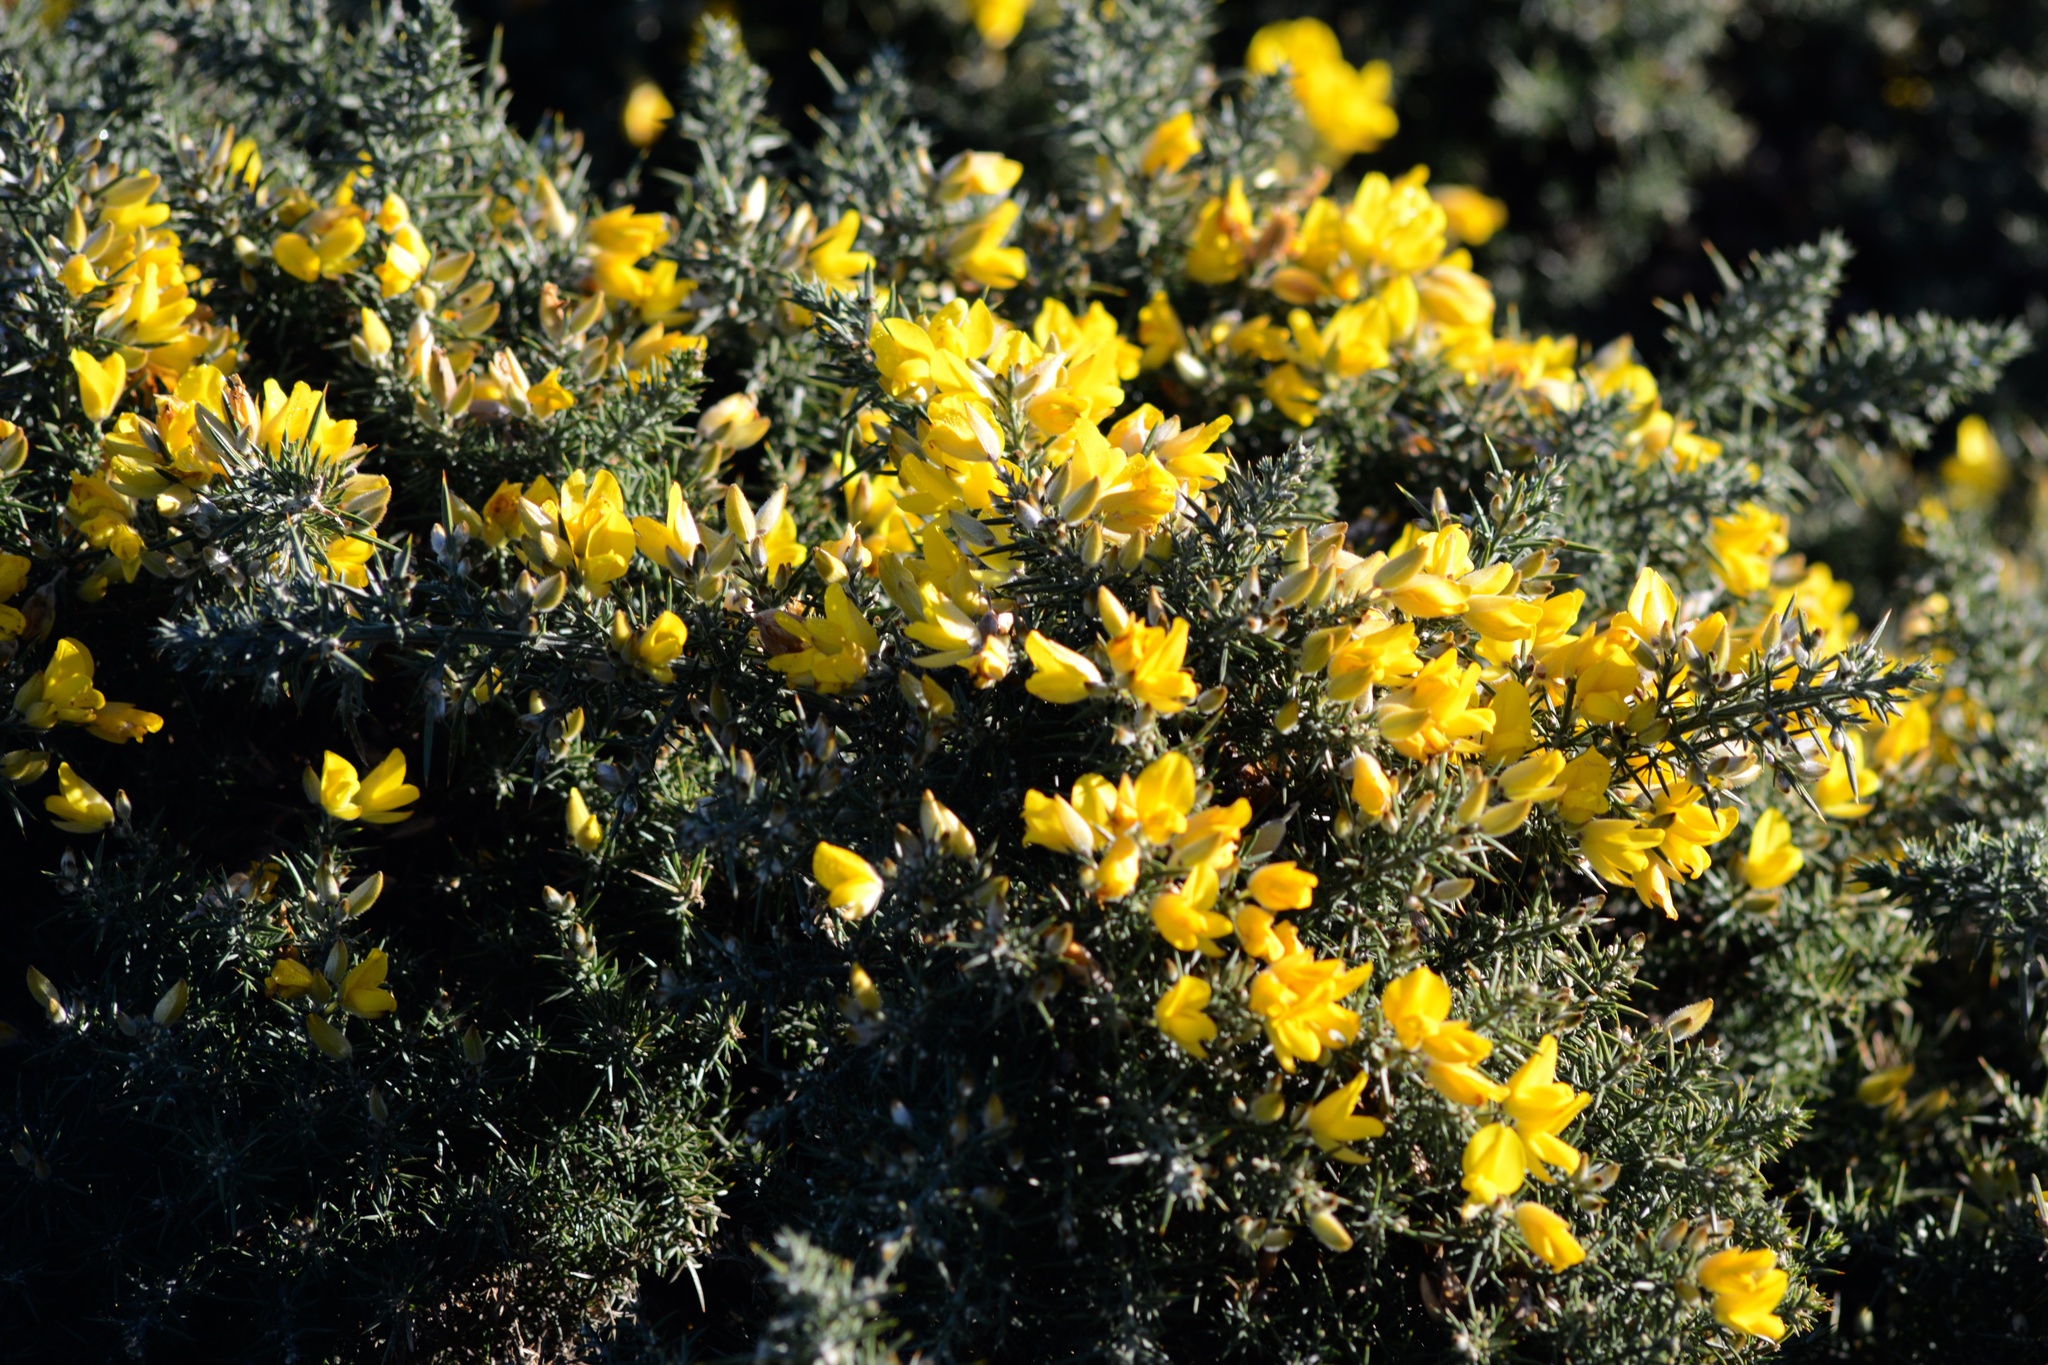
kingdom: Plantae
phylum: Tracheophyta
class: Magnoliopsida
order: Fabales
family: Fabaceae
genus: Ulex
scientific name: Ulex europaeus
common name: Common gorse
